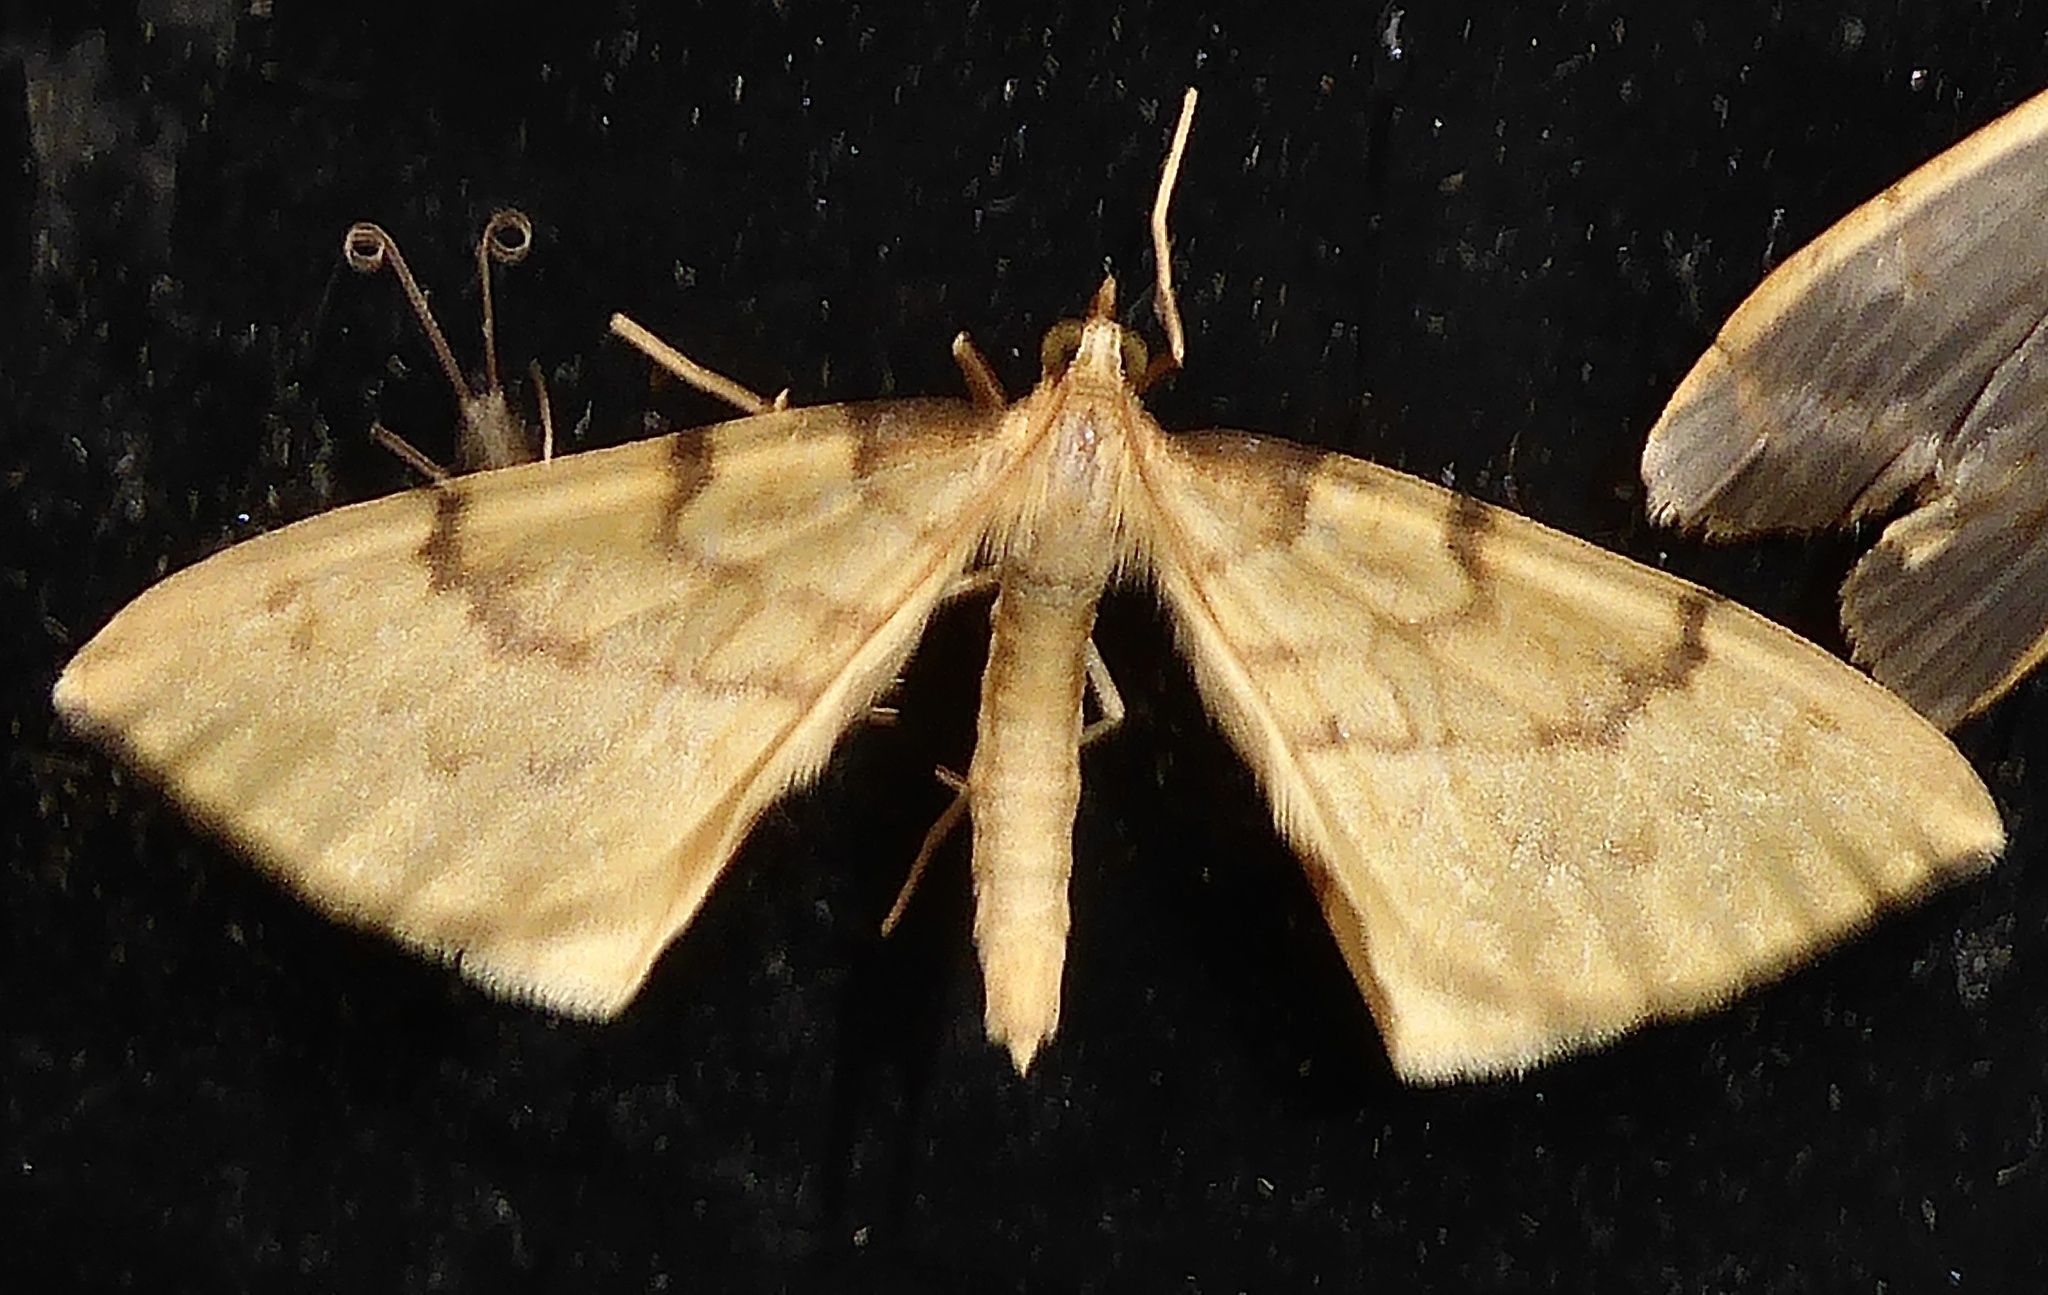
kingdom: Animalia
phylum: Arthropoda
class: Insecta
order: Lepidoptera
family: Geometridae
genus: Eulithis
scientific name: Eulithis pyraliata
